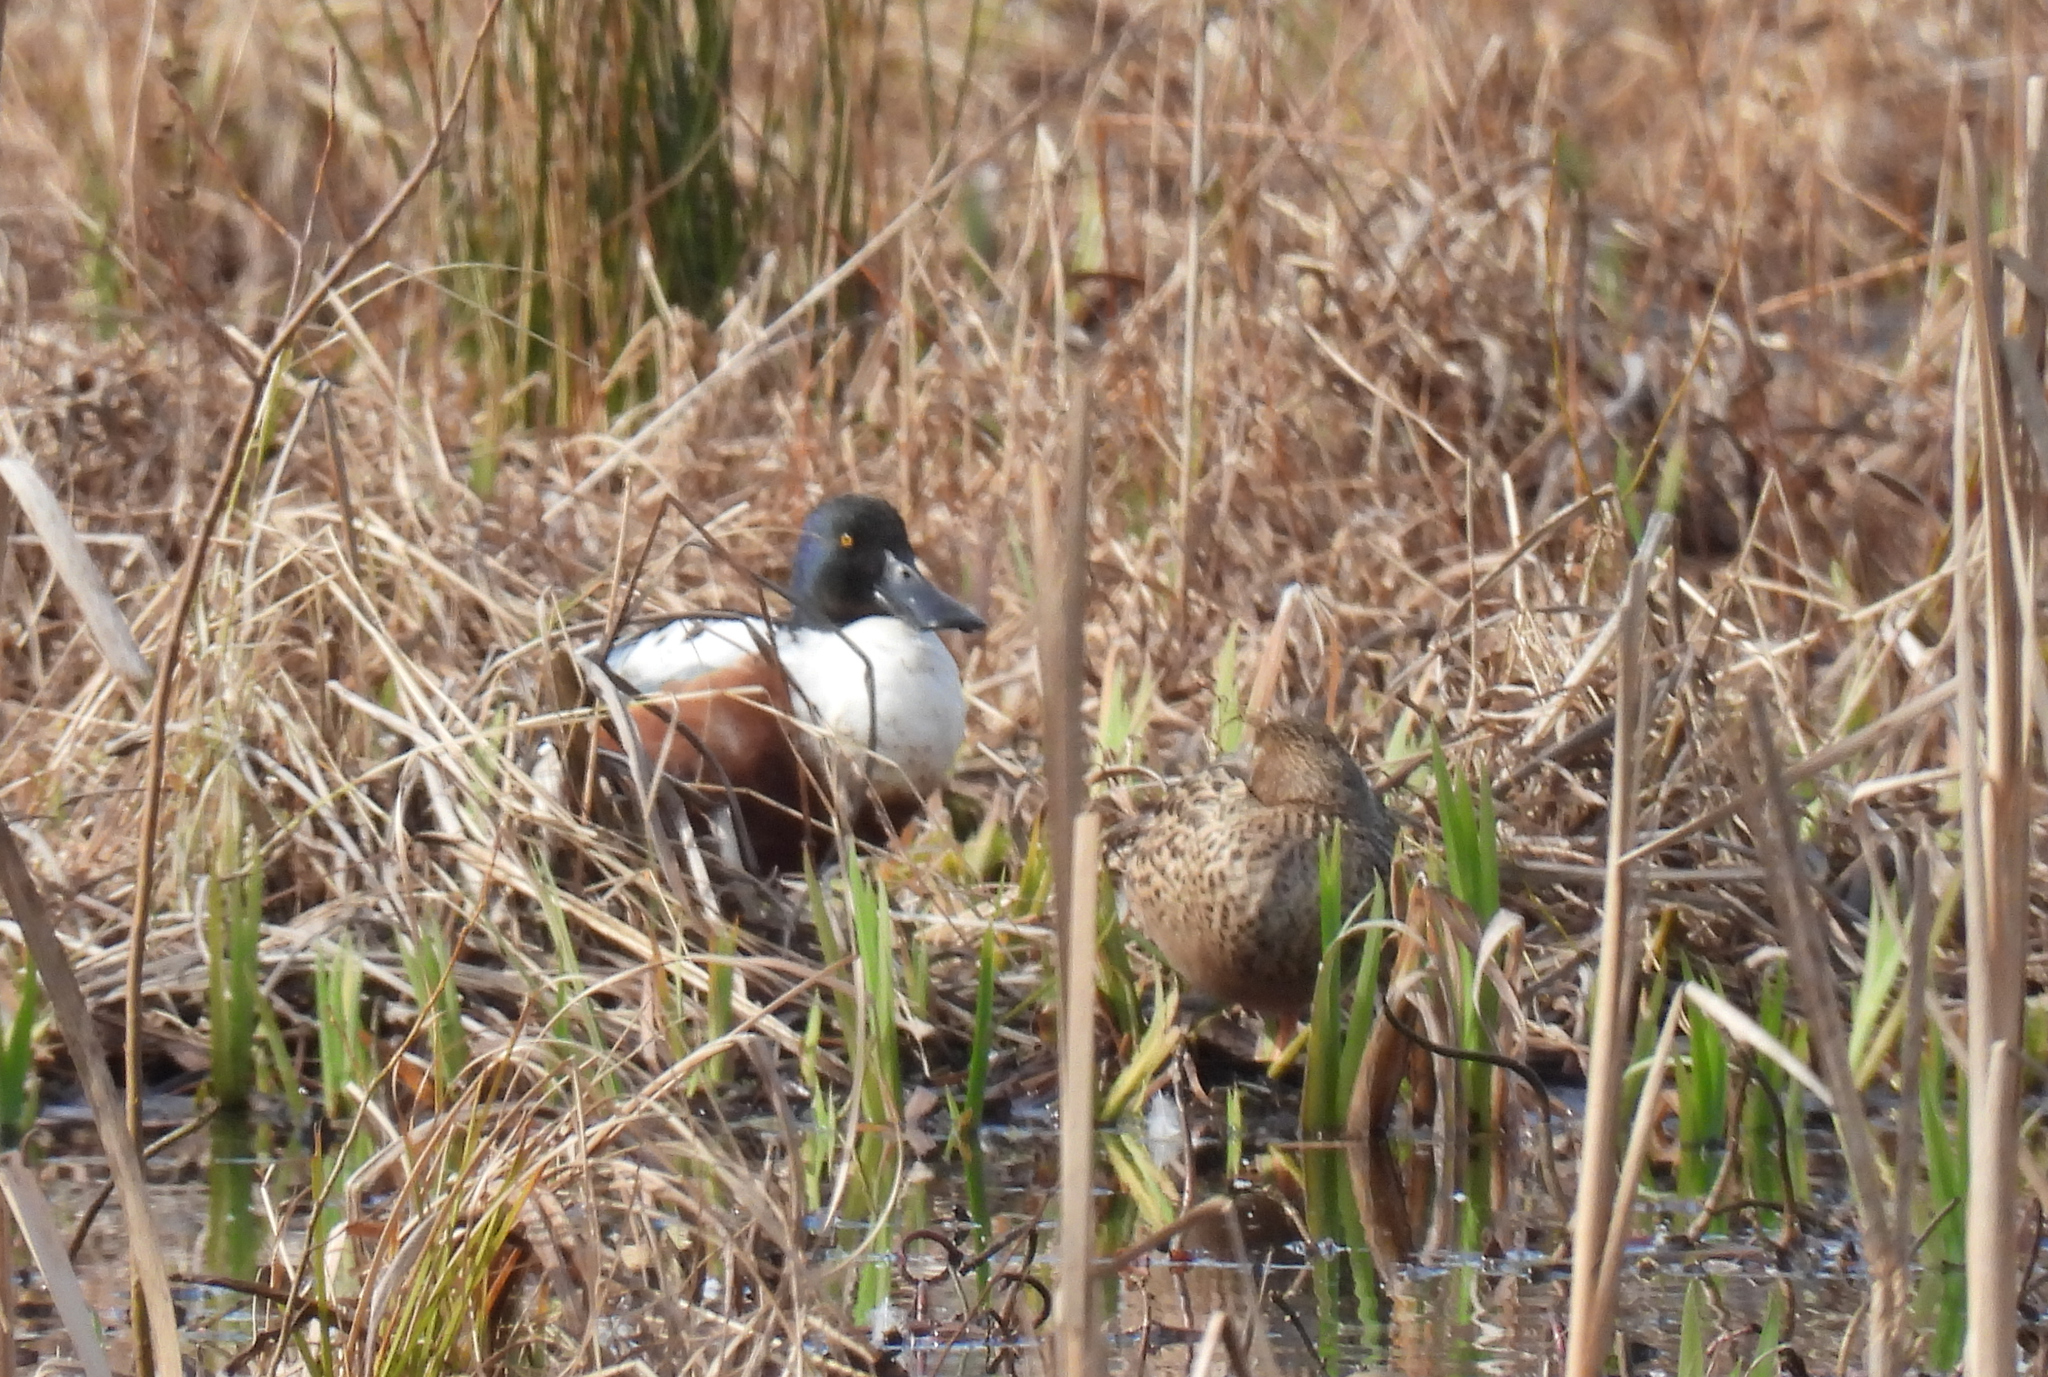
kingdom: Animalia
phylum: Chordata
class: Aves
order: Anseriformes
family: Anatidae
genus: Spatula
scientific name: Spatula clypeata
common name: Northern shoveler
